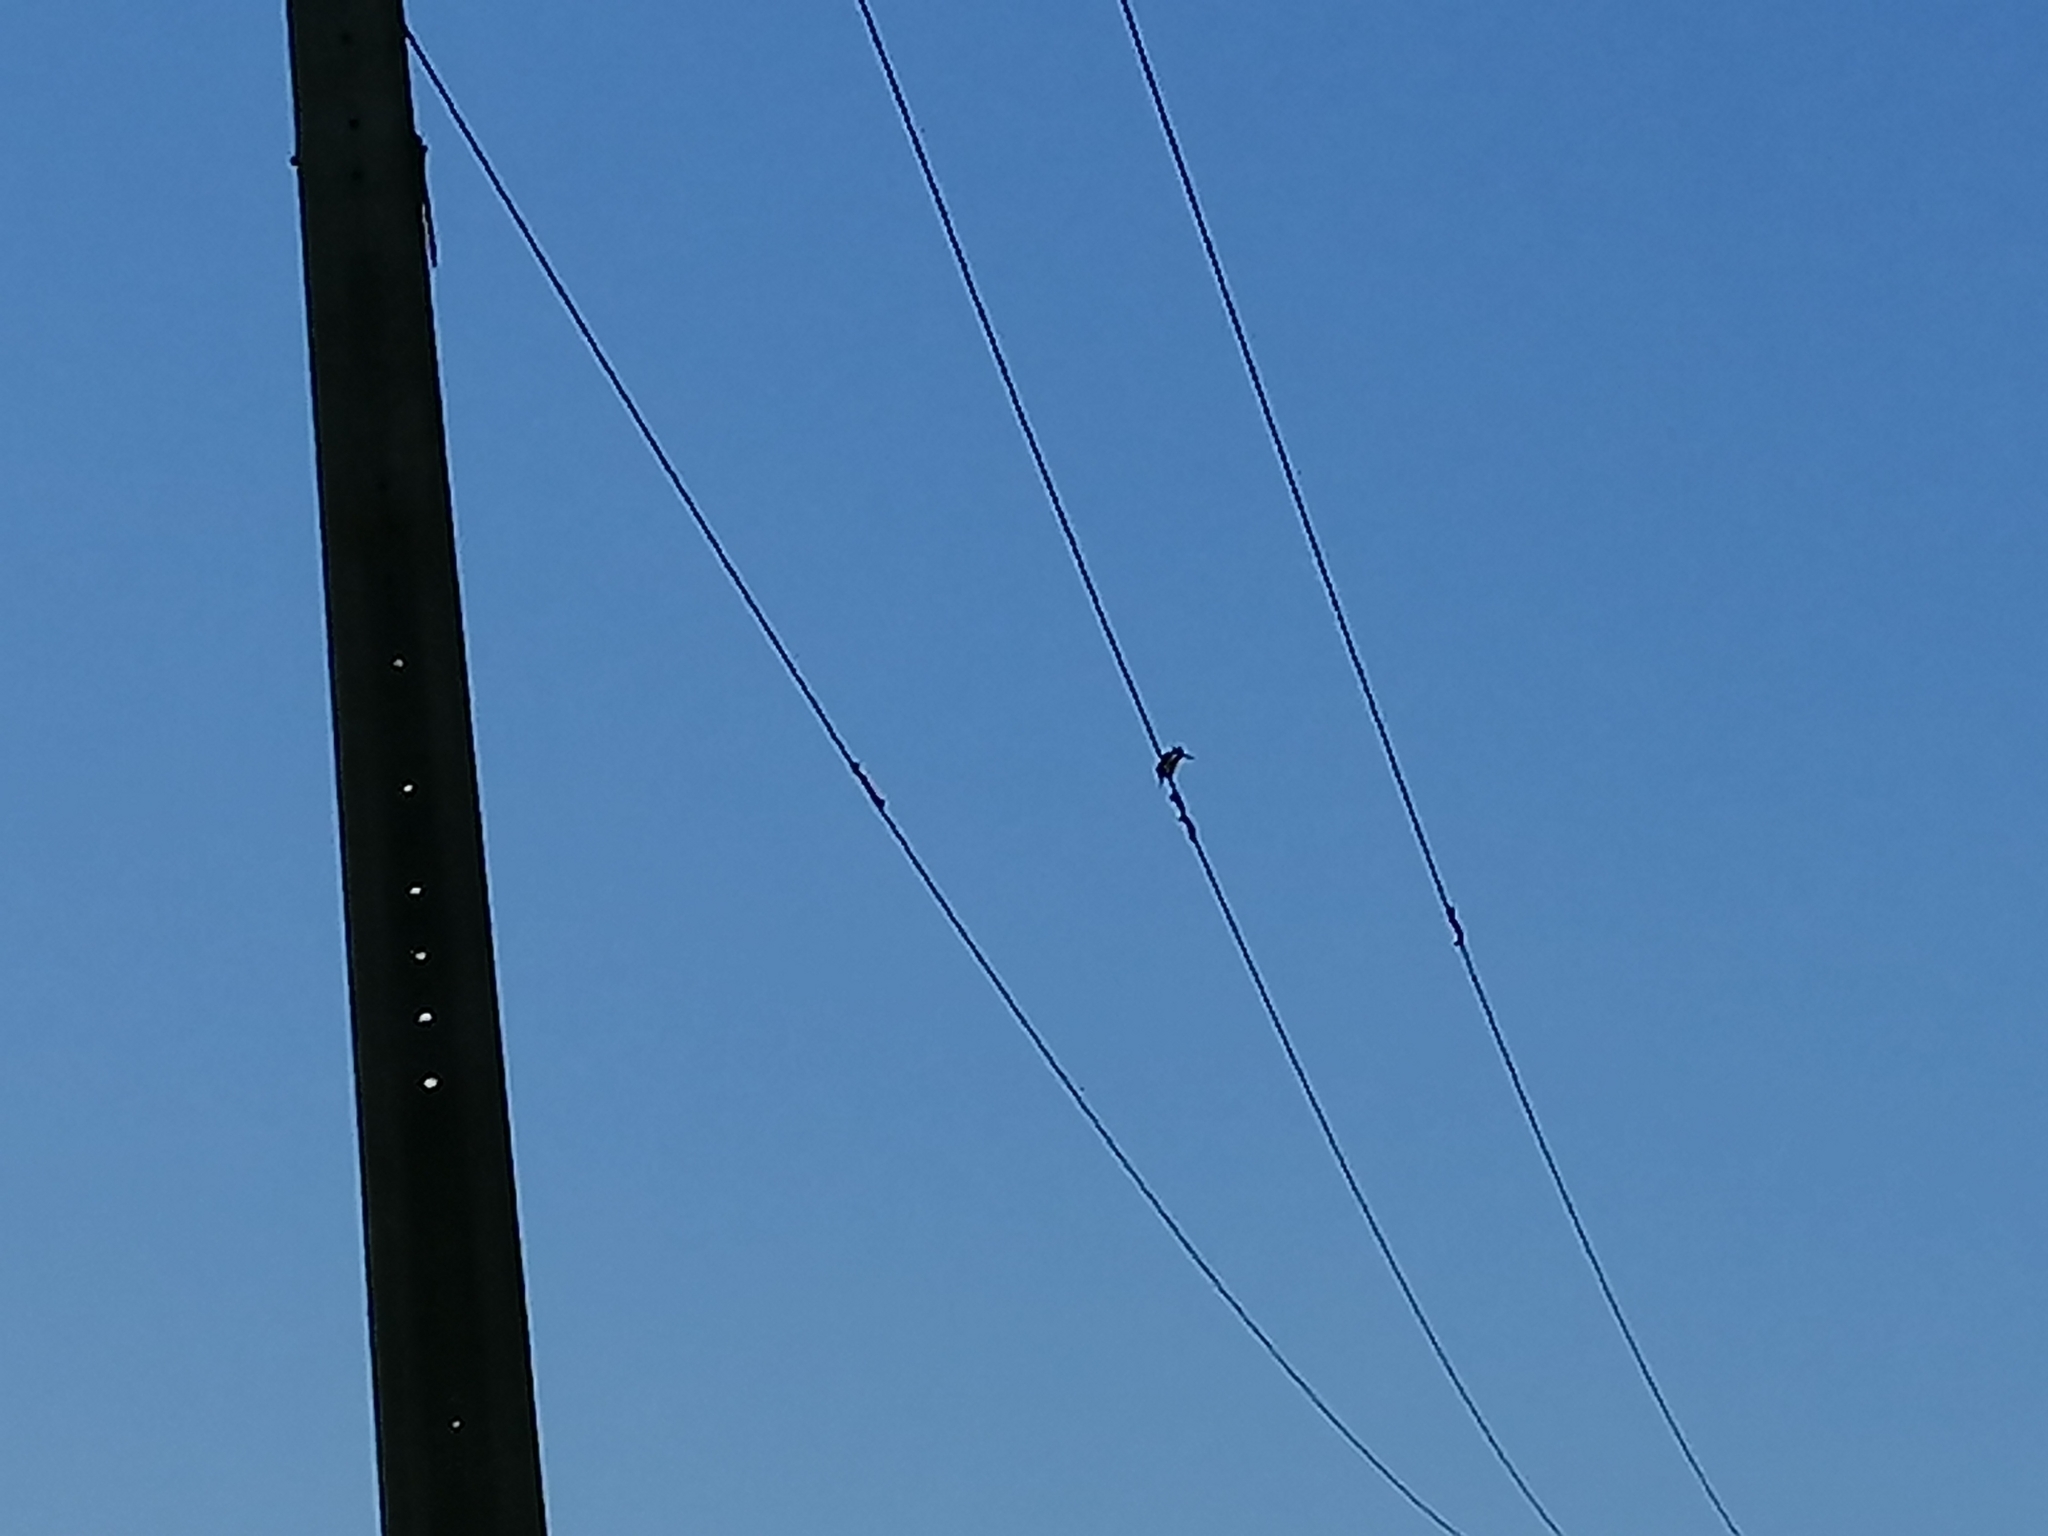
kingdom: Animalia
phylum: Chordata
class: Aves
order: Coraciiformes
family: Alcedinidae
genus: Todiramphus
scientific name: Todiramphus sanctus
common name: Sacred kingfisher
